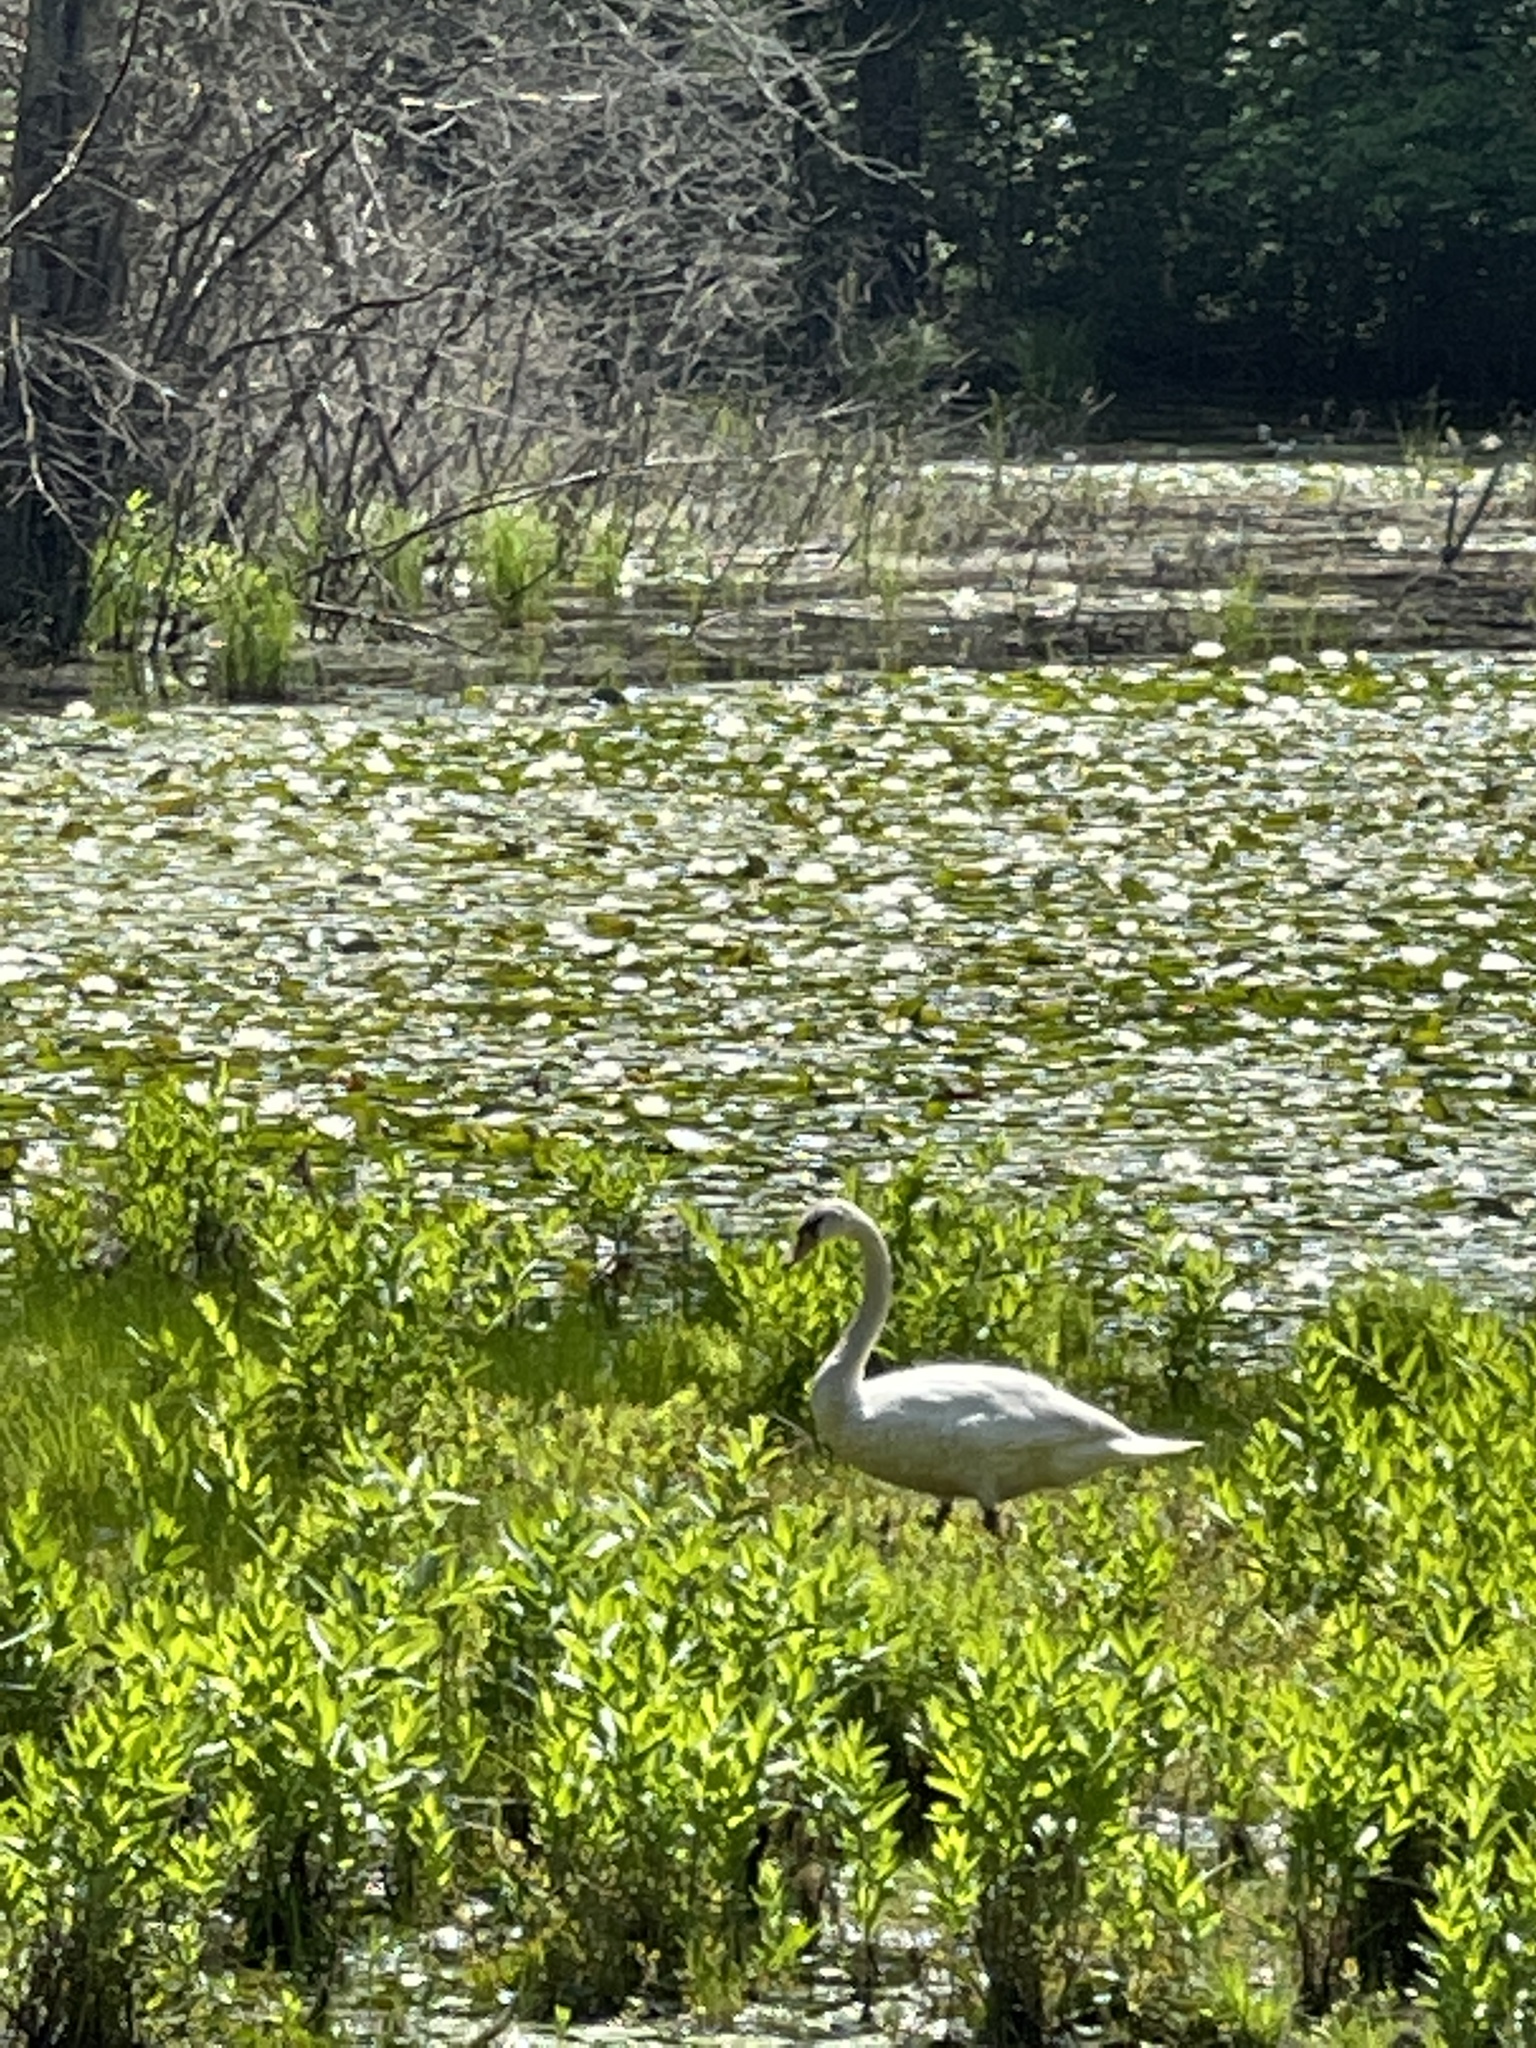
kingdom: Animalia
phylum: Chordata
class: Aves
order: Anseriformes
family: Anatidae
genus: Cygnus
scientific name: Cygnus olor
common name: Mute swan
